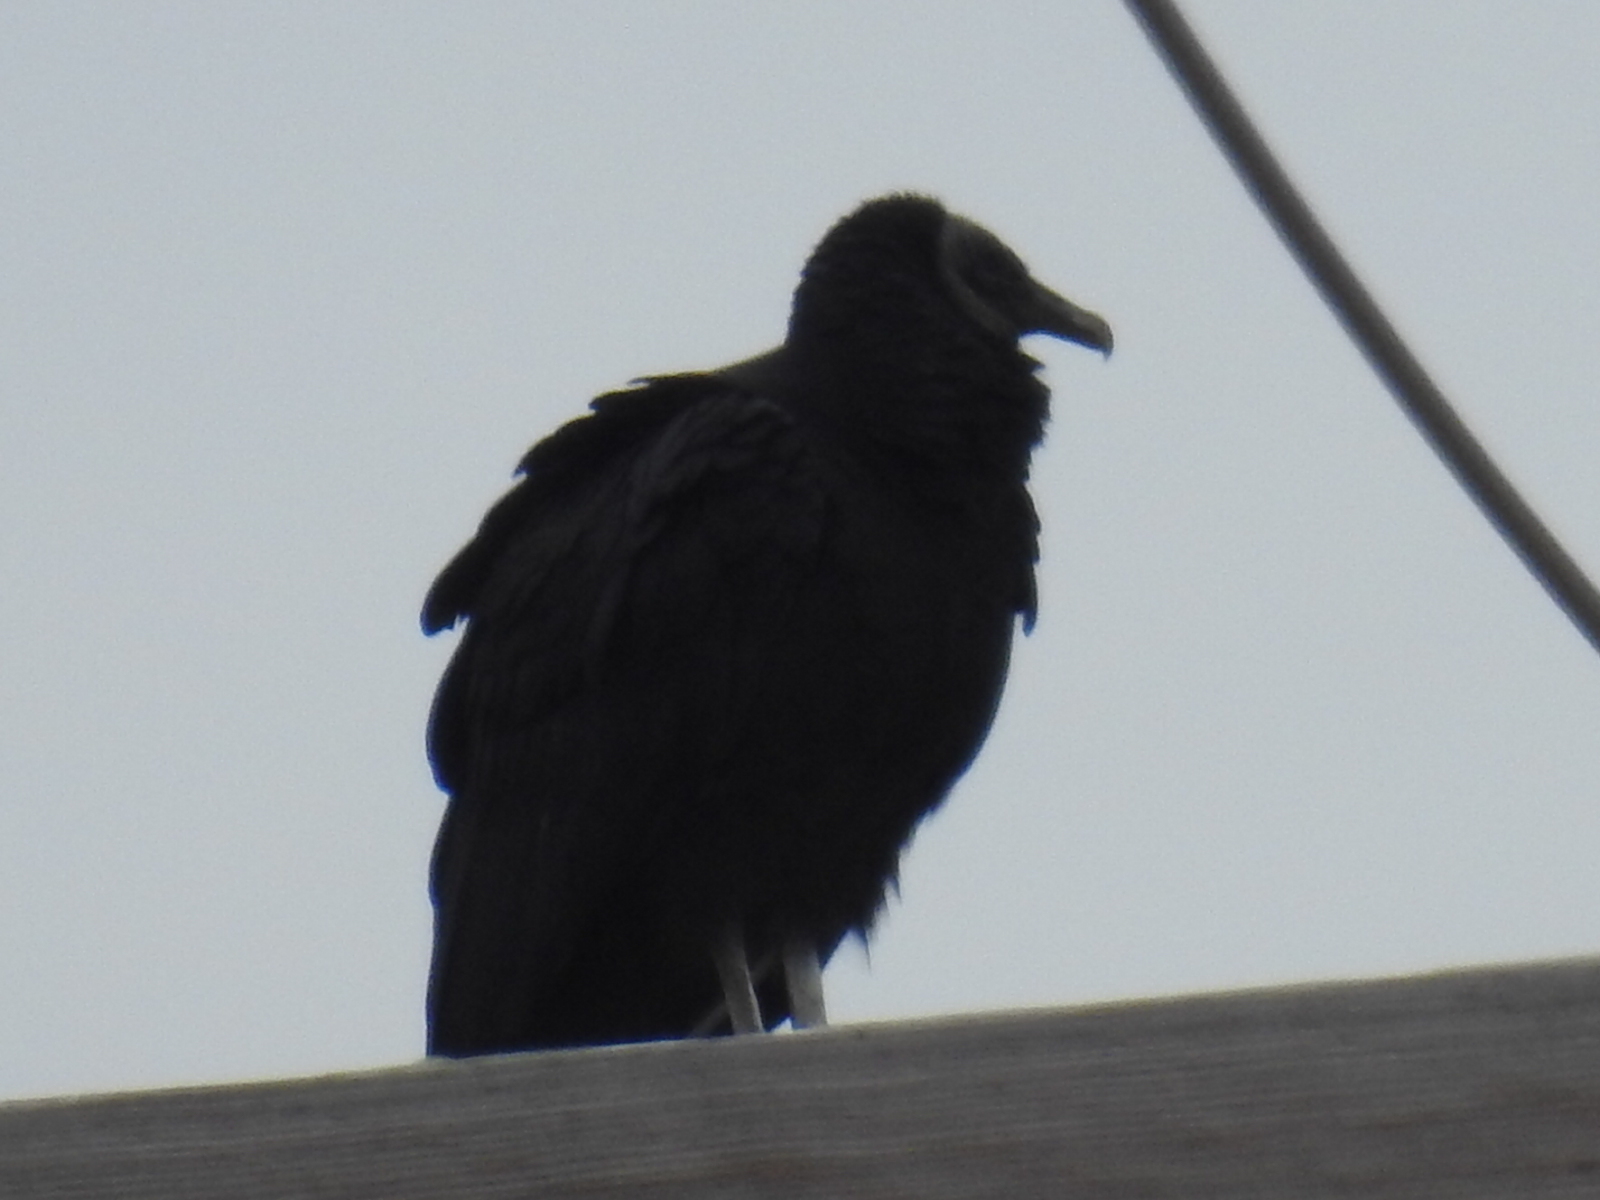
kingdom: Animalia
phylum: Chordata
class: Aves
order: Accipitriformes
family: Cathartidae
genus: Coragyps
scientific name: Coragyps atratus
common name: Black vulture
